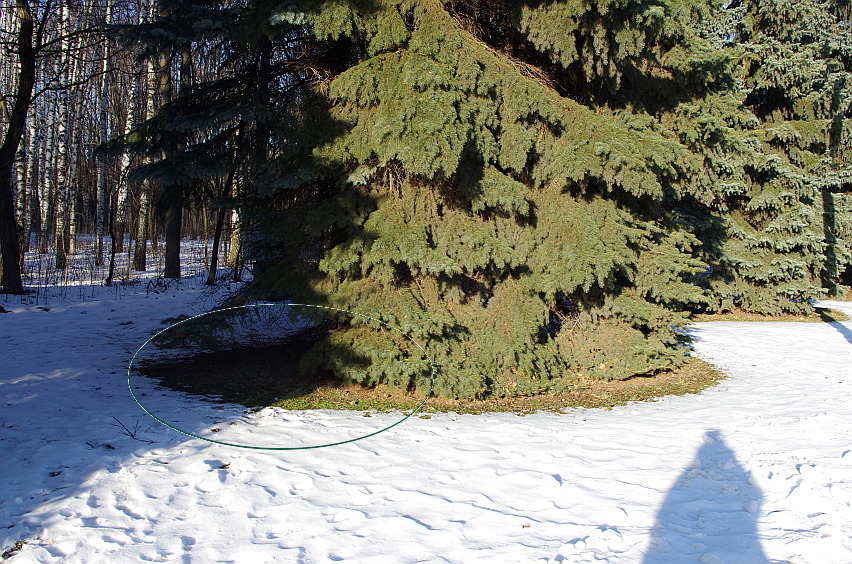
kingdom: Plantae
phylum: Tracheophyta
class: Magnoliopsida
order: Asterales
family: Asteraceae
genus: Achillea
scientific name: Achillea millefolium
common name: Yarrow
